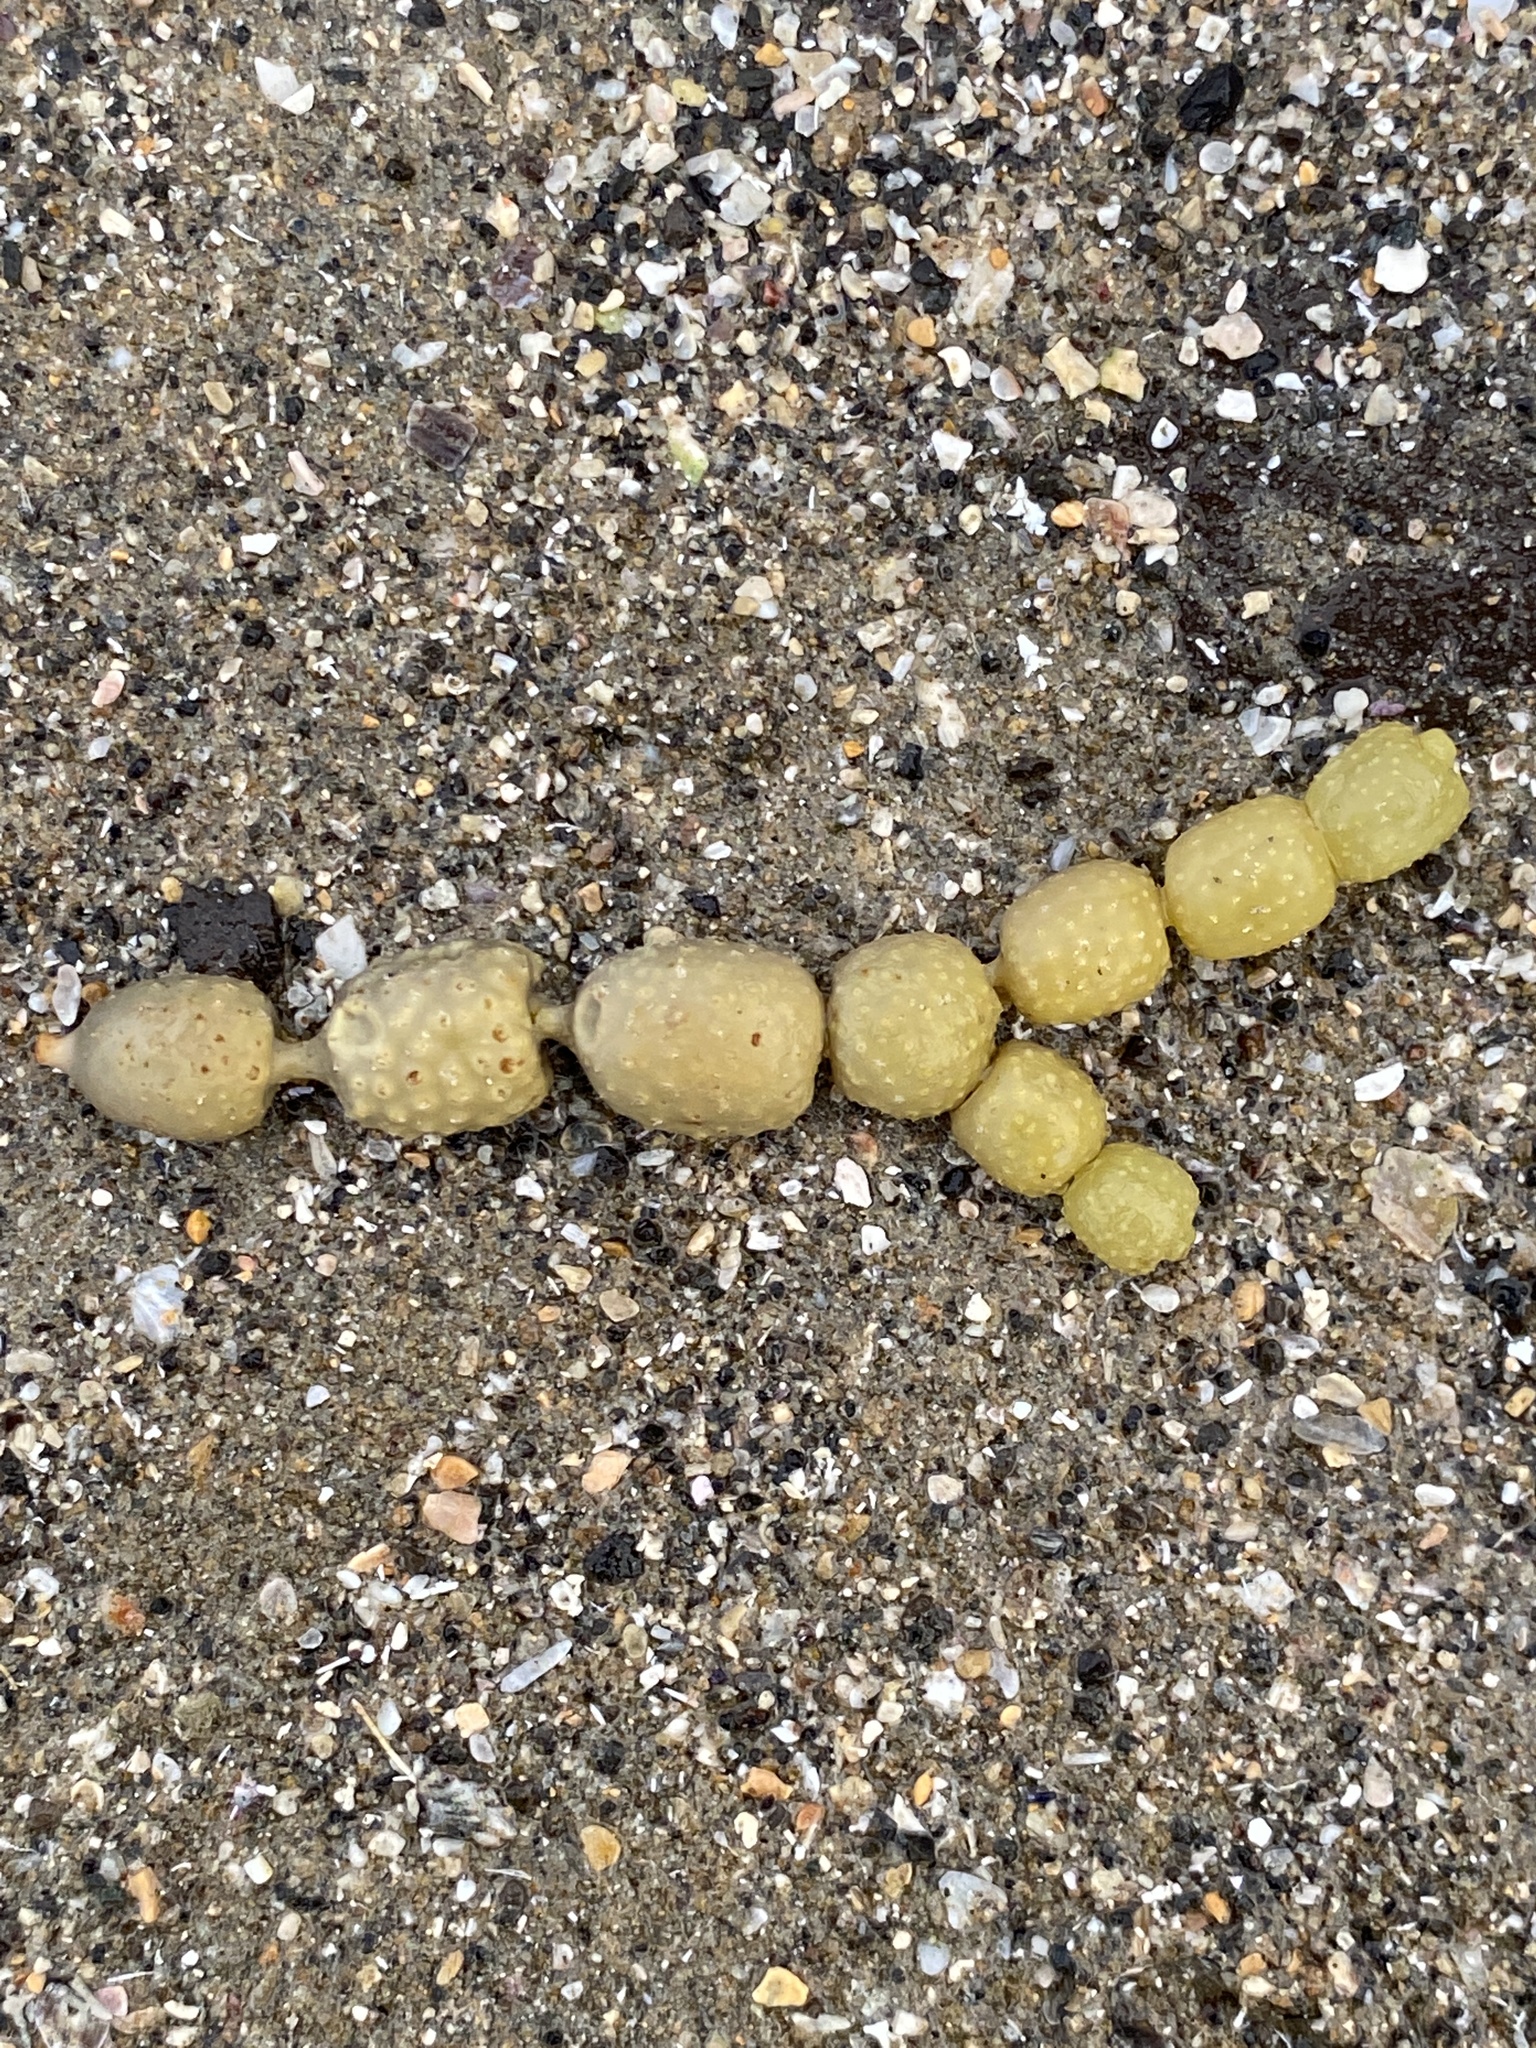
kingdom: Chromista
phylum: Ochrophyta
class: Phaeophyceae
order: Fucales
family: Hormosiraceae
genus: Hormosira
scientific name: Hormosira banksii
